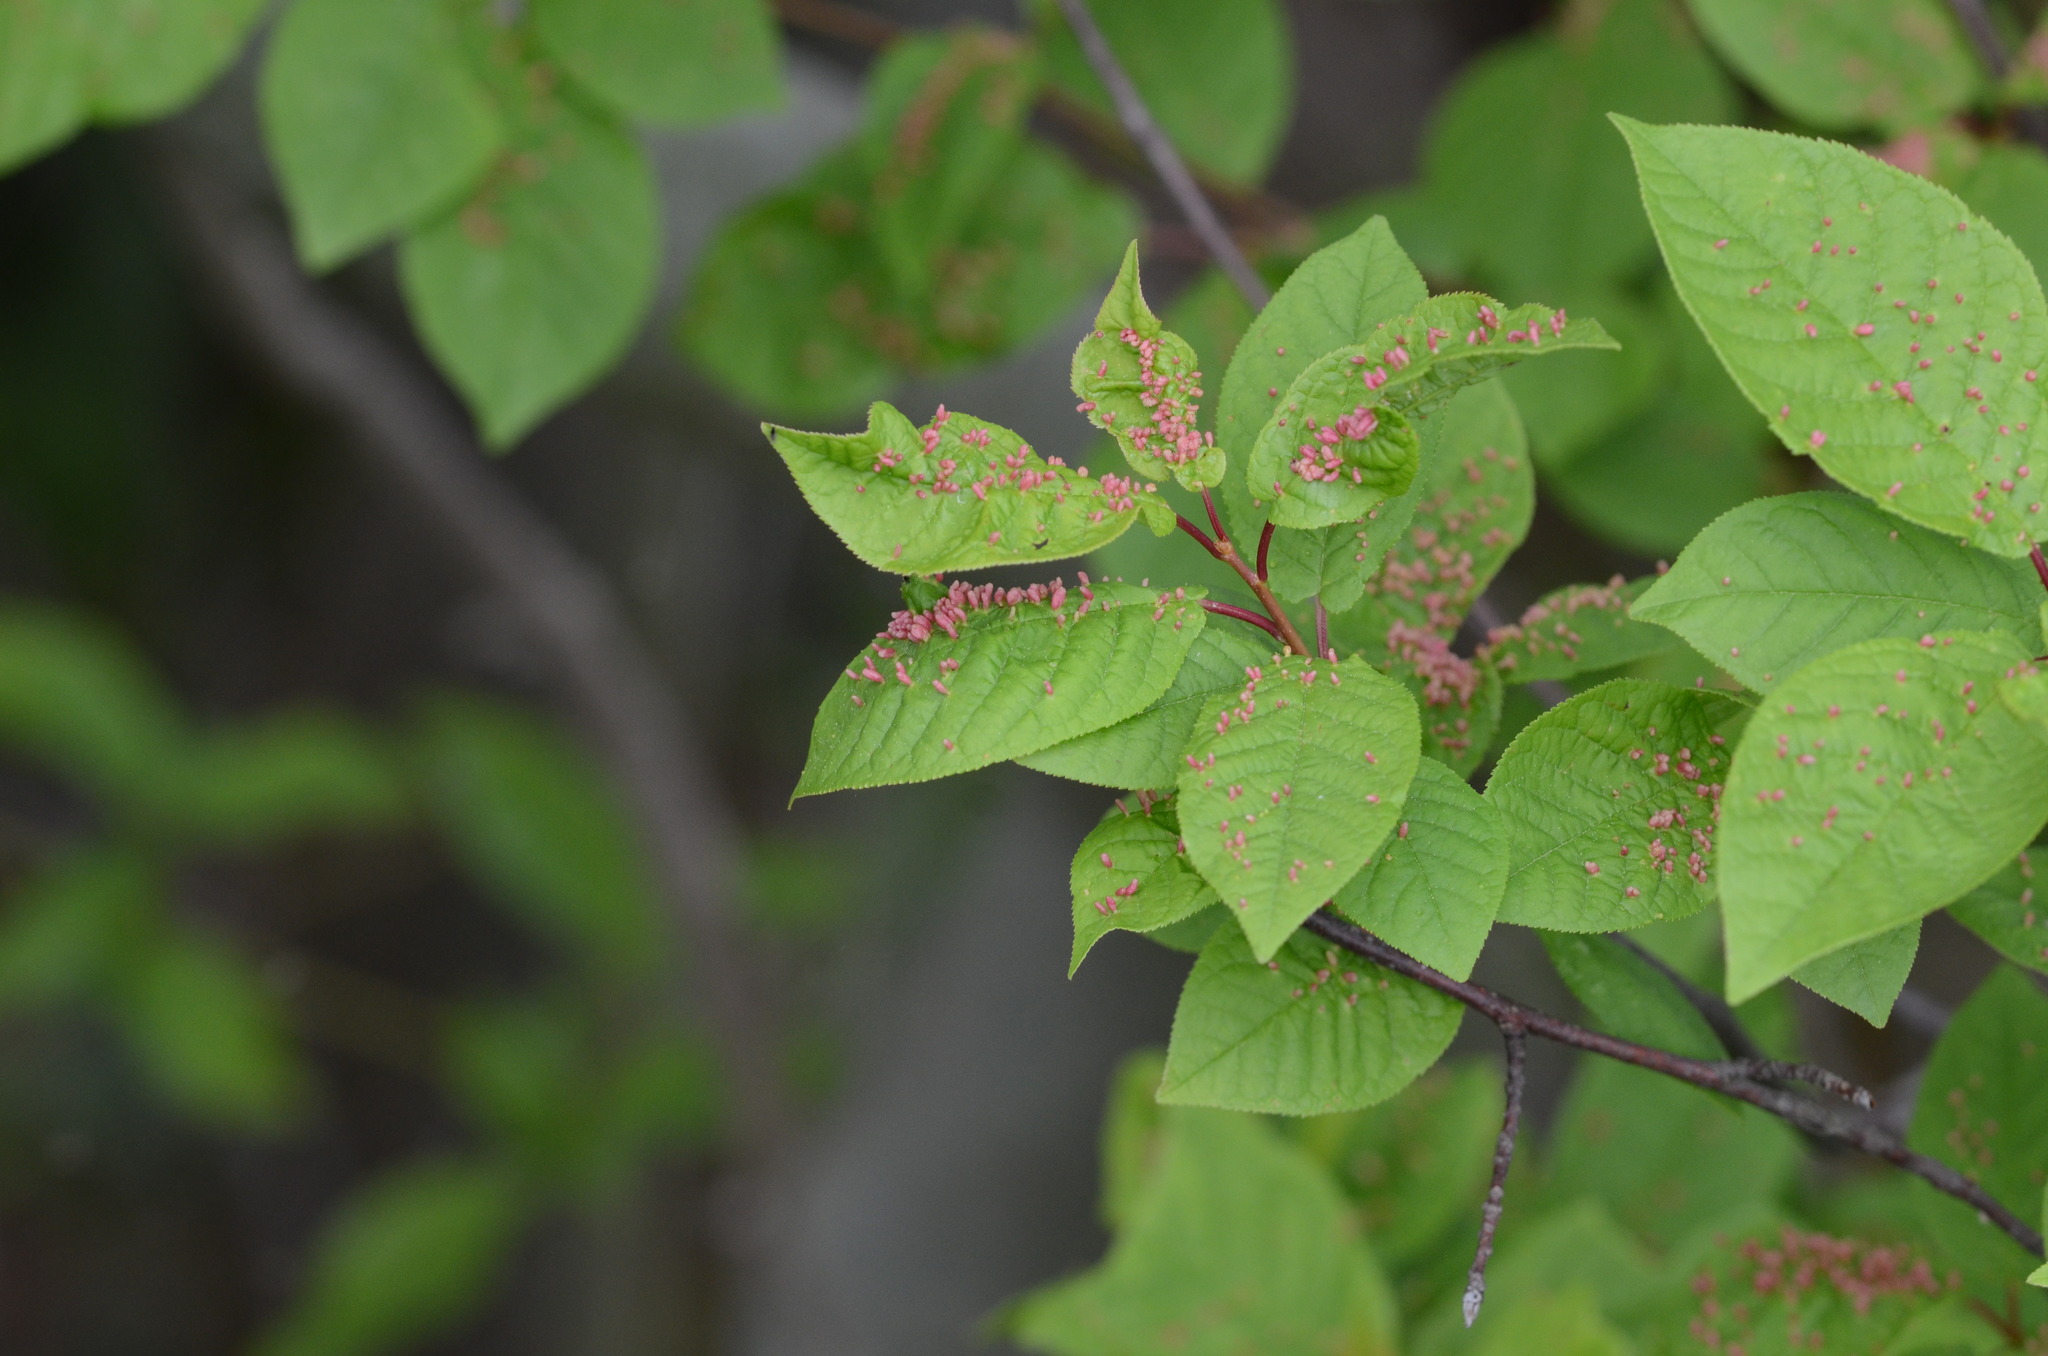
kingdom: Plantae
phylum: Tracheophyta
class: Magnoliopsida
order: Rosales
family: Rosaceae
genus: Prunus
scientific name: Prunus padus
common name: Bird cherry
